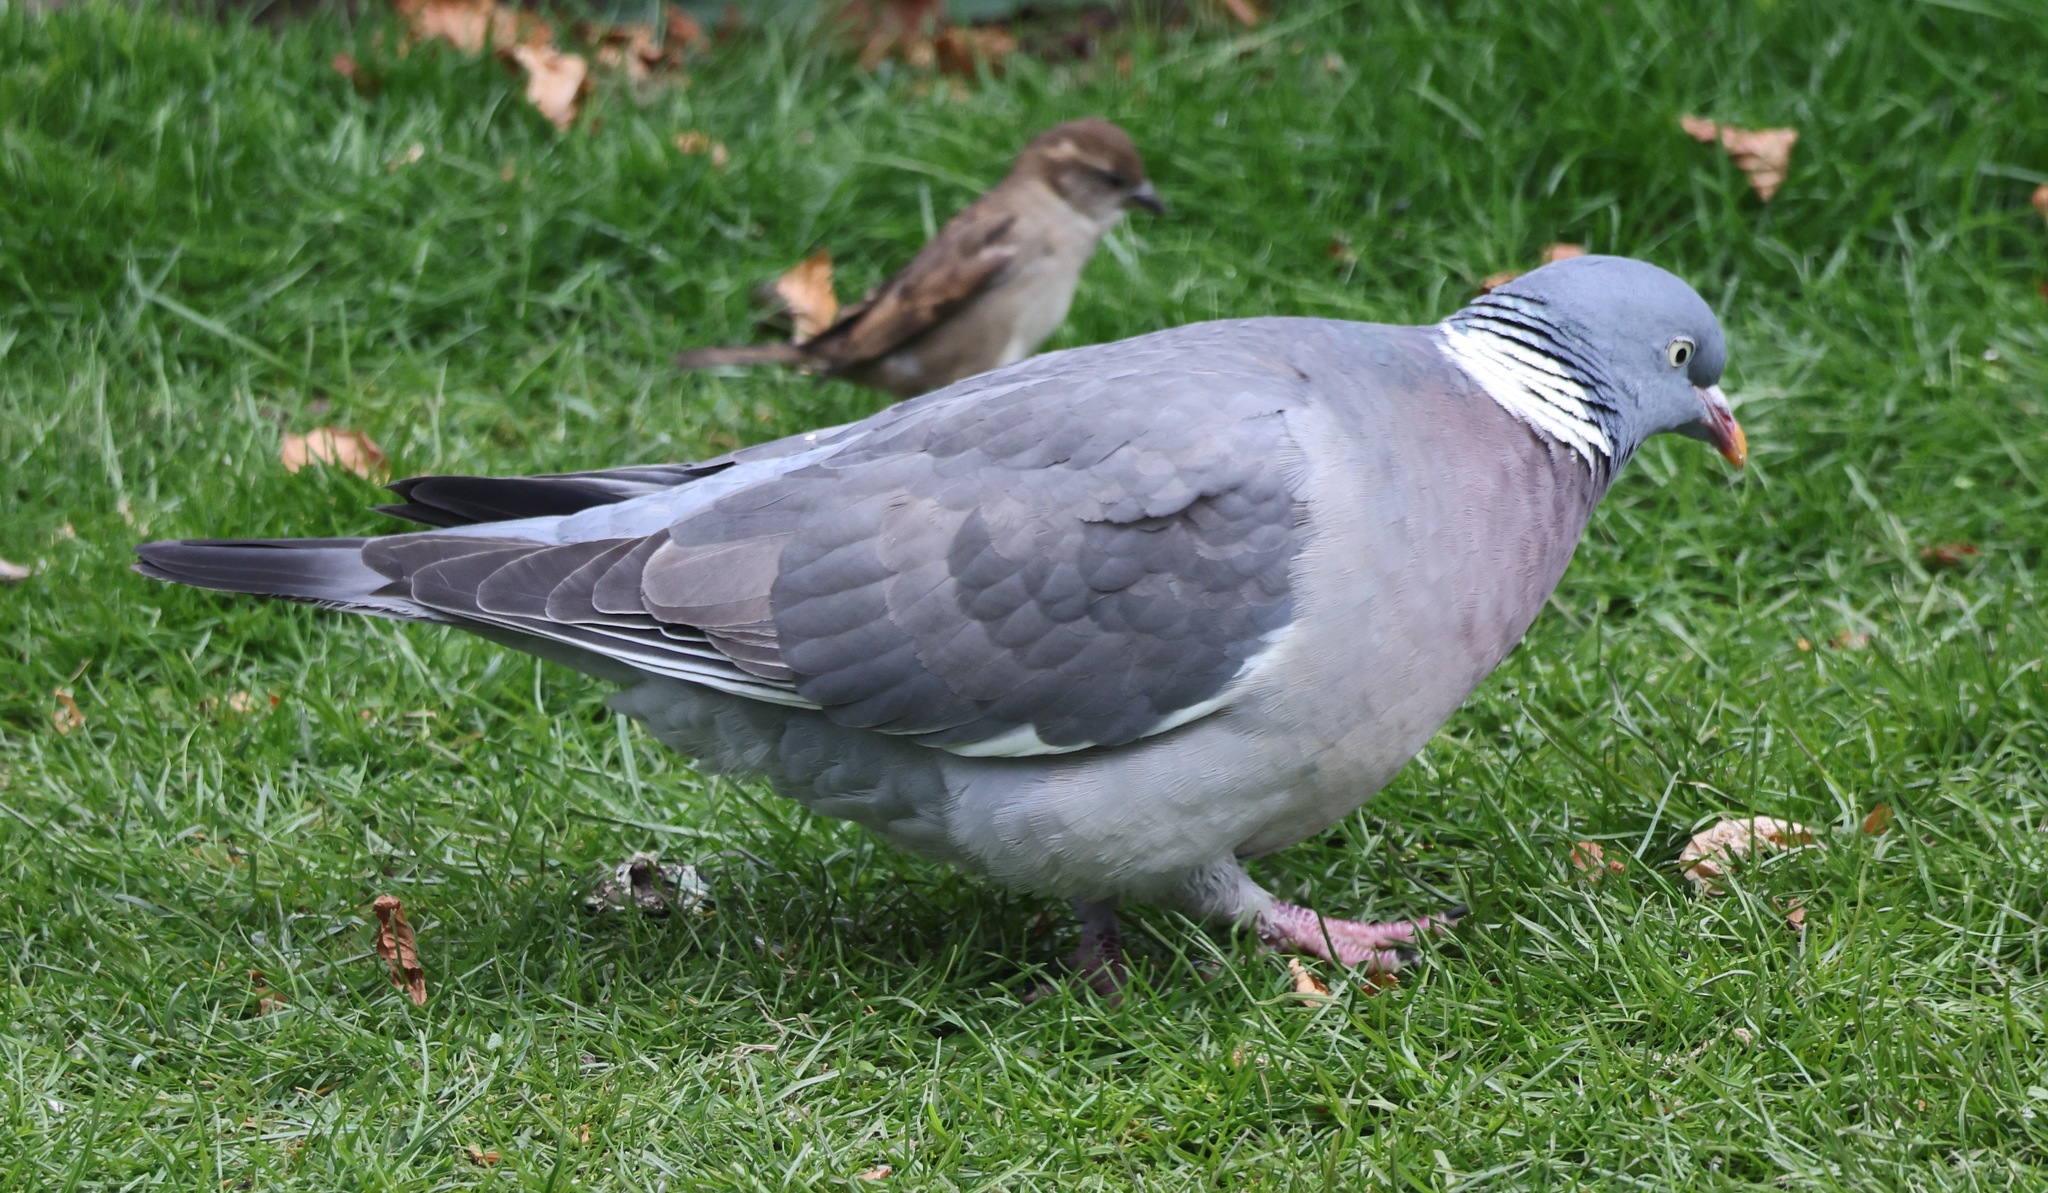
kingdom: Animalia
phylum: Chordata
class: Aves
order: Columbiformes
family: Columbidae
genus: Columba
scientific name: Columba palumbus
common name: Common wood pigeon
